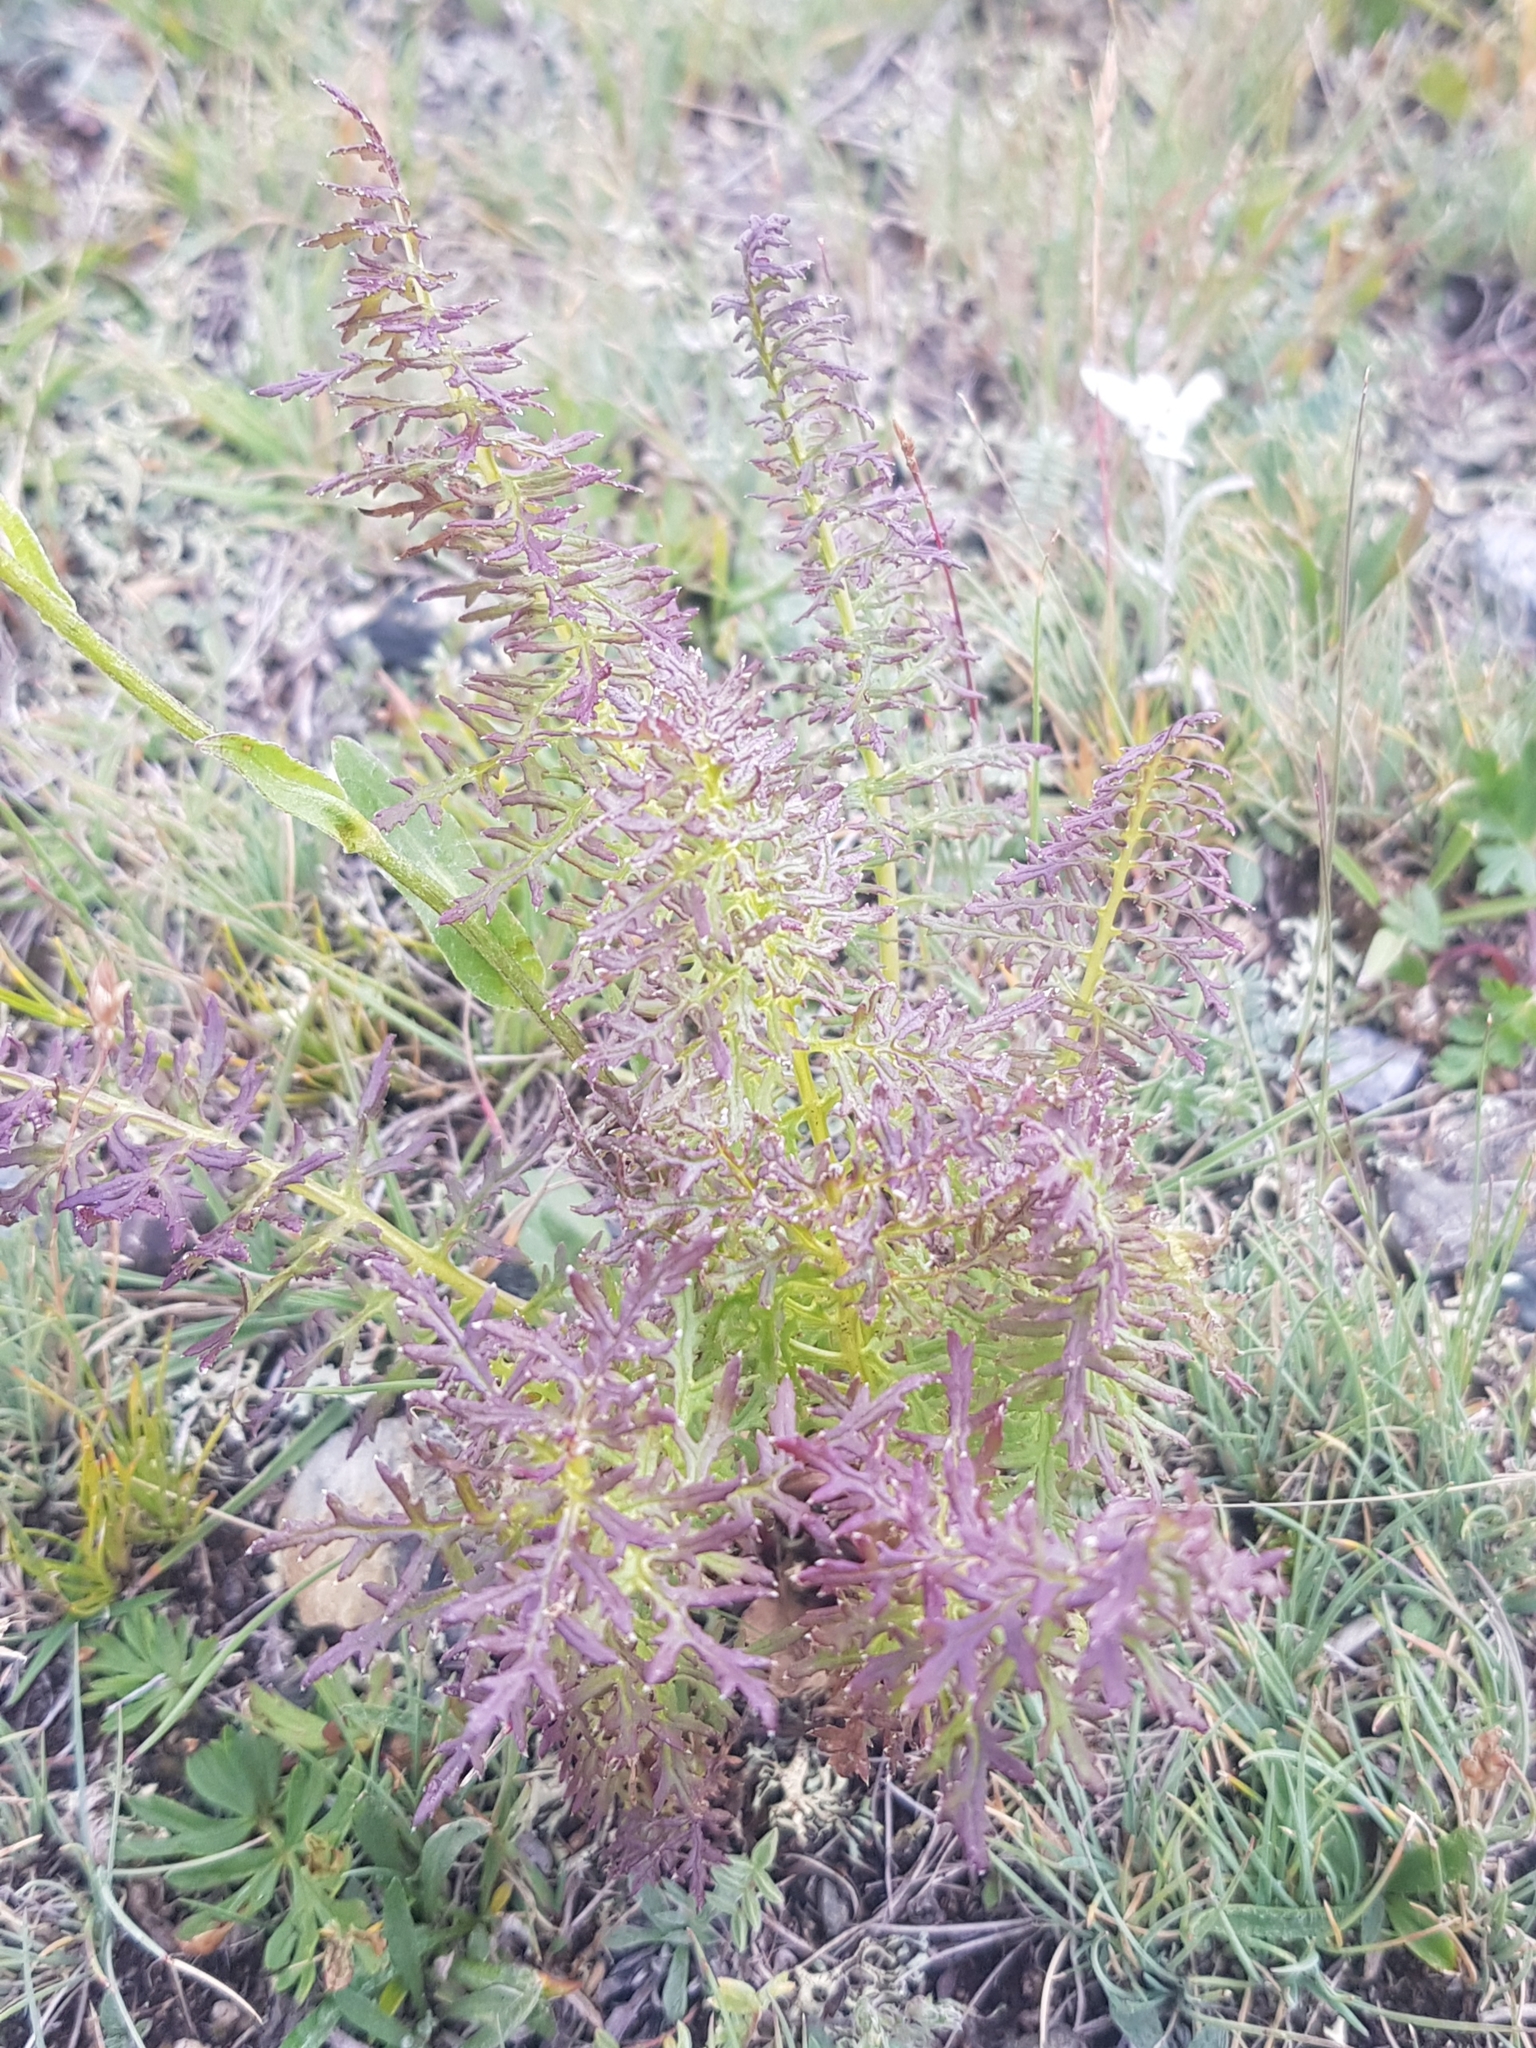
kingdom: Plantae
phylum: Tracheophyta
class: Magnoliopsida
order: Lamiales
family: Orobanchaceae
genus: Pedicularis
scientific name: Pedicularis rubens
